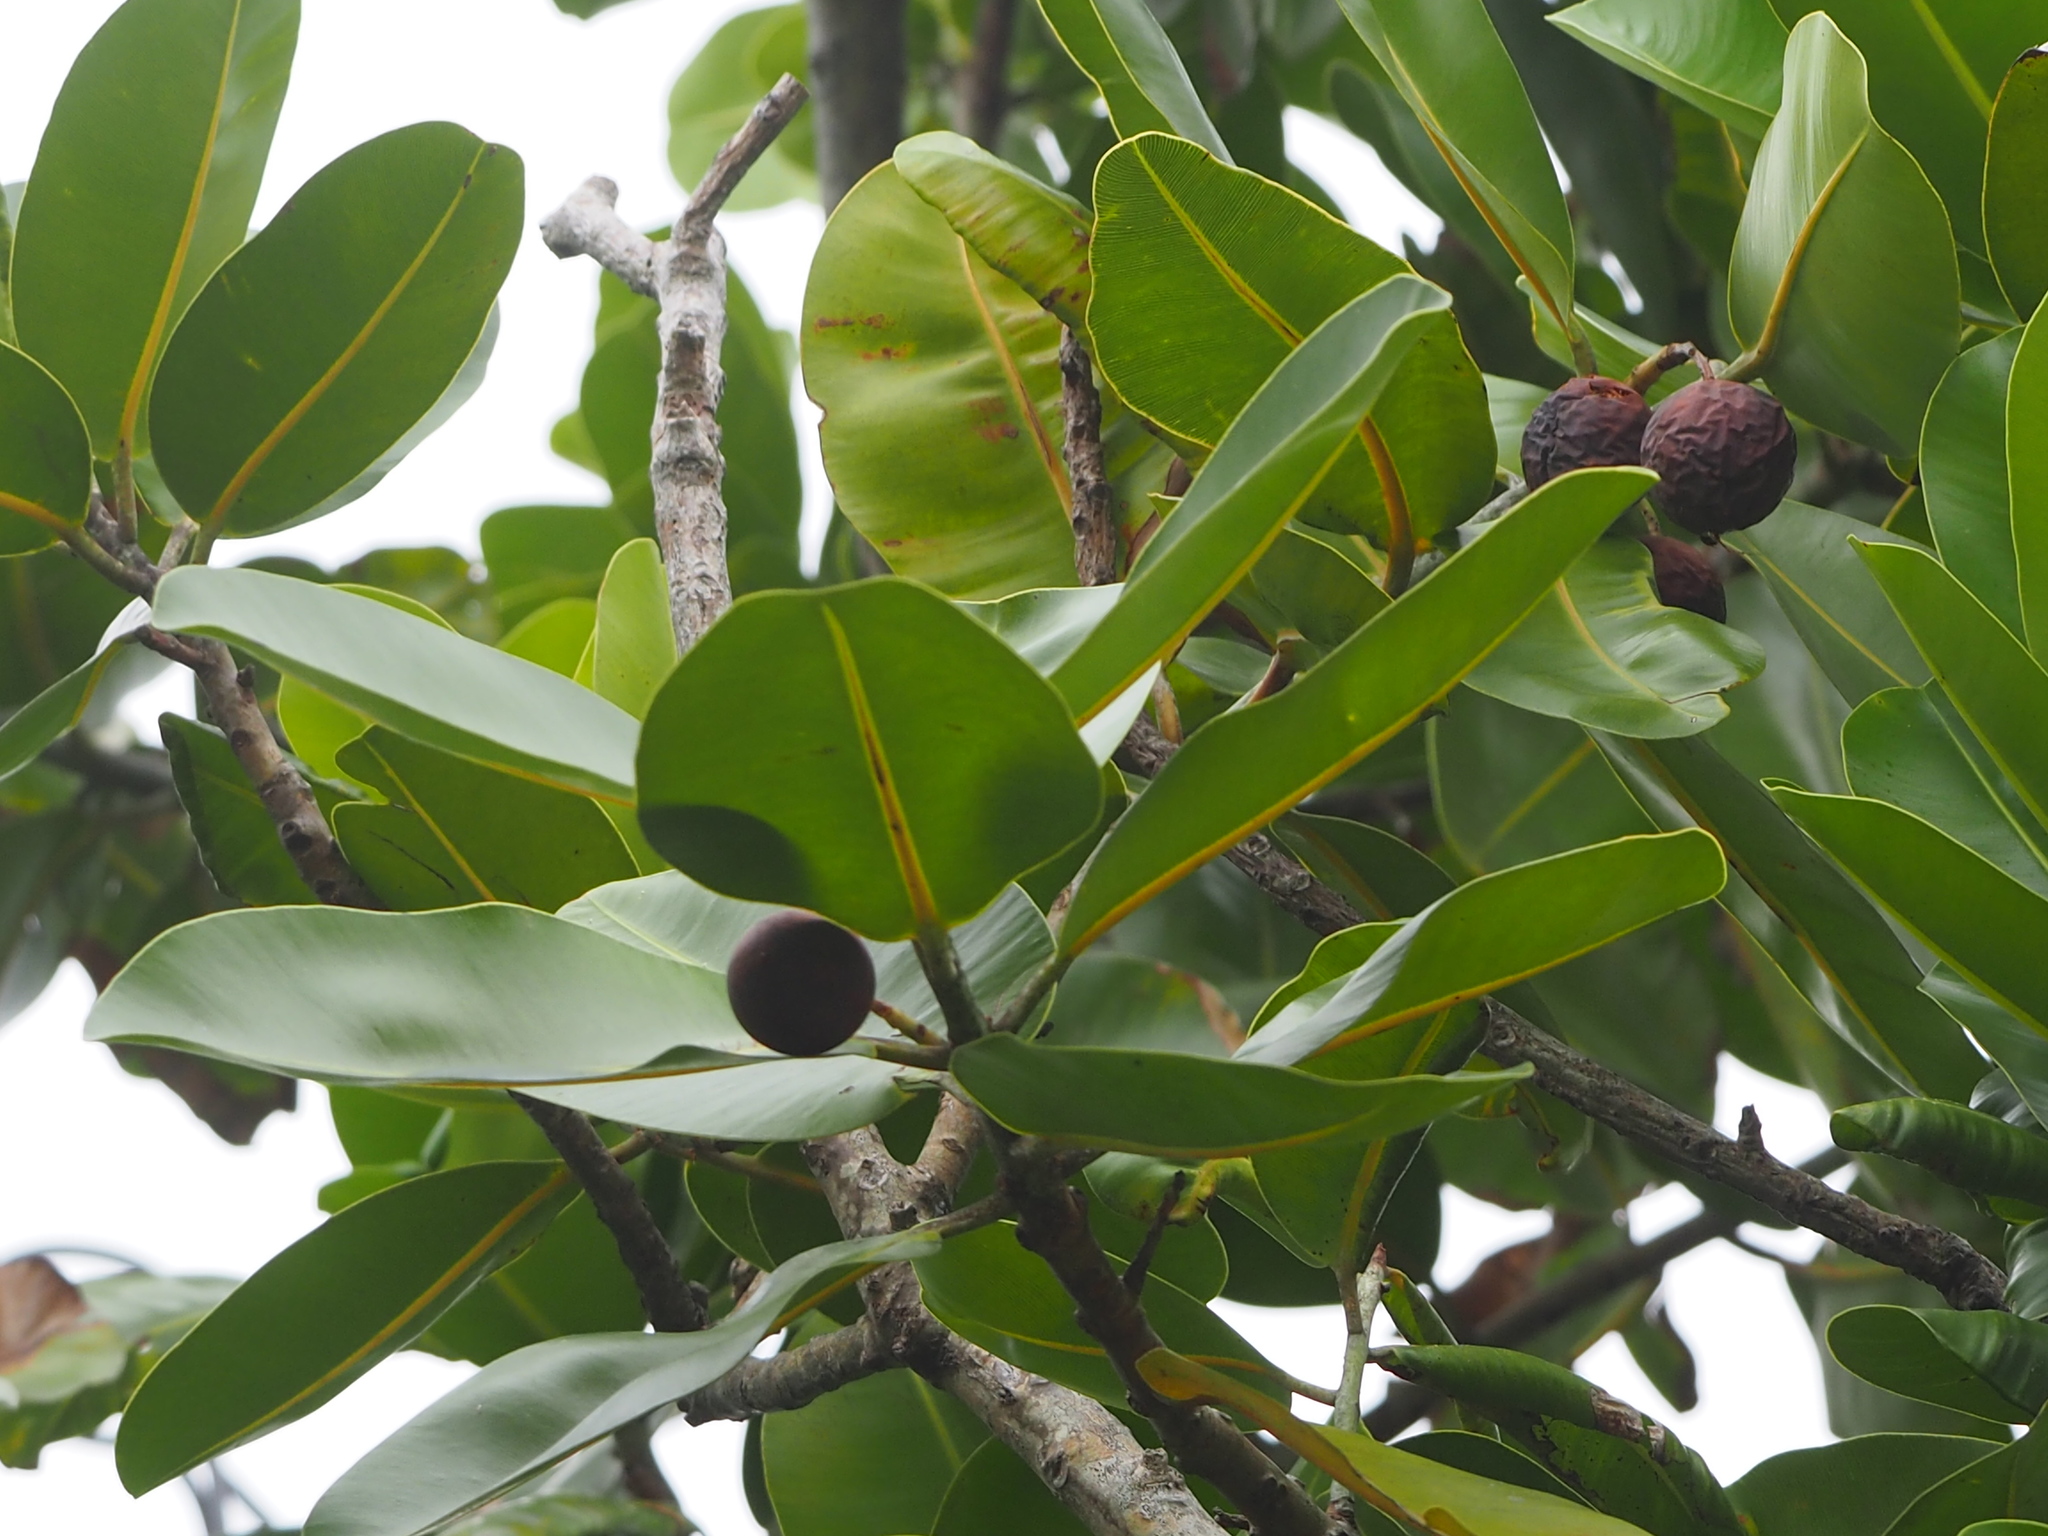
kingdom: Plantae
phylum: Tracheophyta
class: Magnoliopsida
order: Malpighiales
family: Calophyllaceae
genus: Calophyllum
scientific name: Calophyllum inophyllum
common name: Alexandrian laurel
